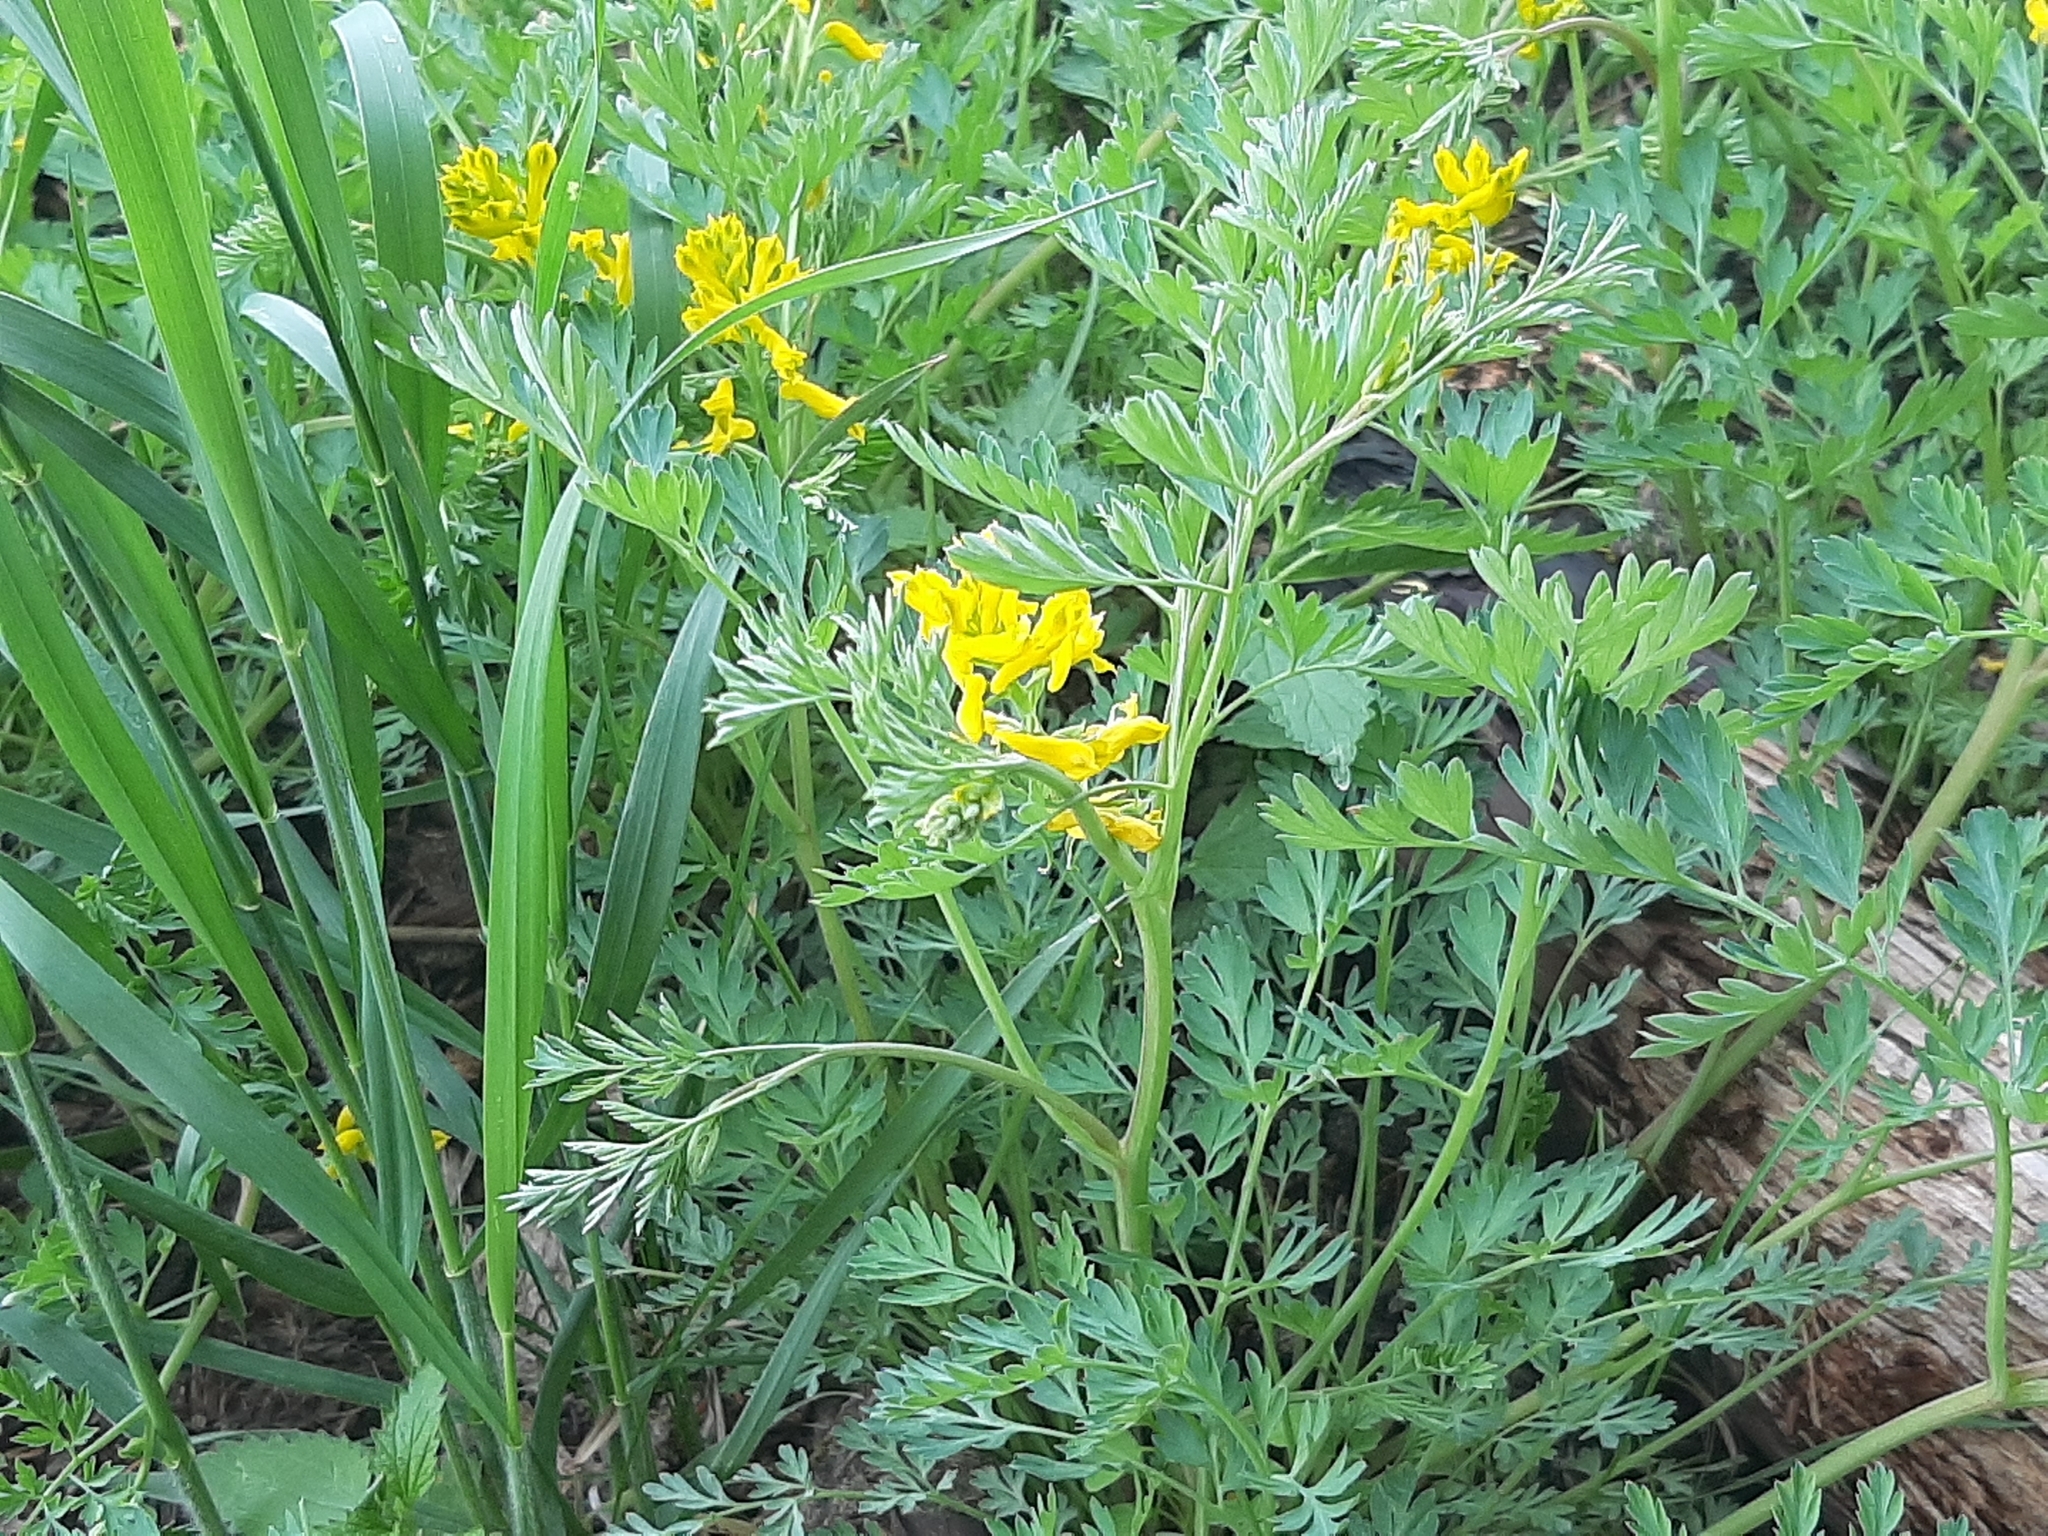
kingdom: Plantae
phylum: Tracheophyta
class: Magnoliopsida
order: Ranunculales
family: Papaveraceae
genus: Corydalis
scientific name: Corydalis aurea
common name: Golden corydalis
